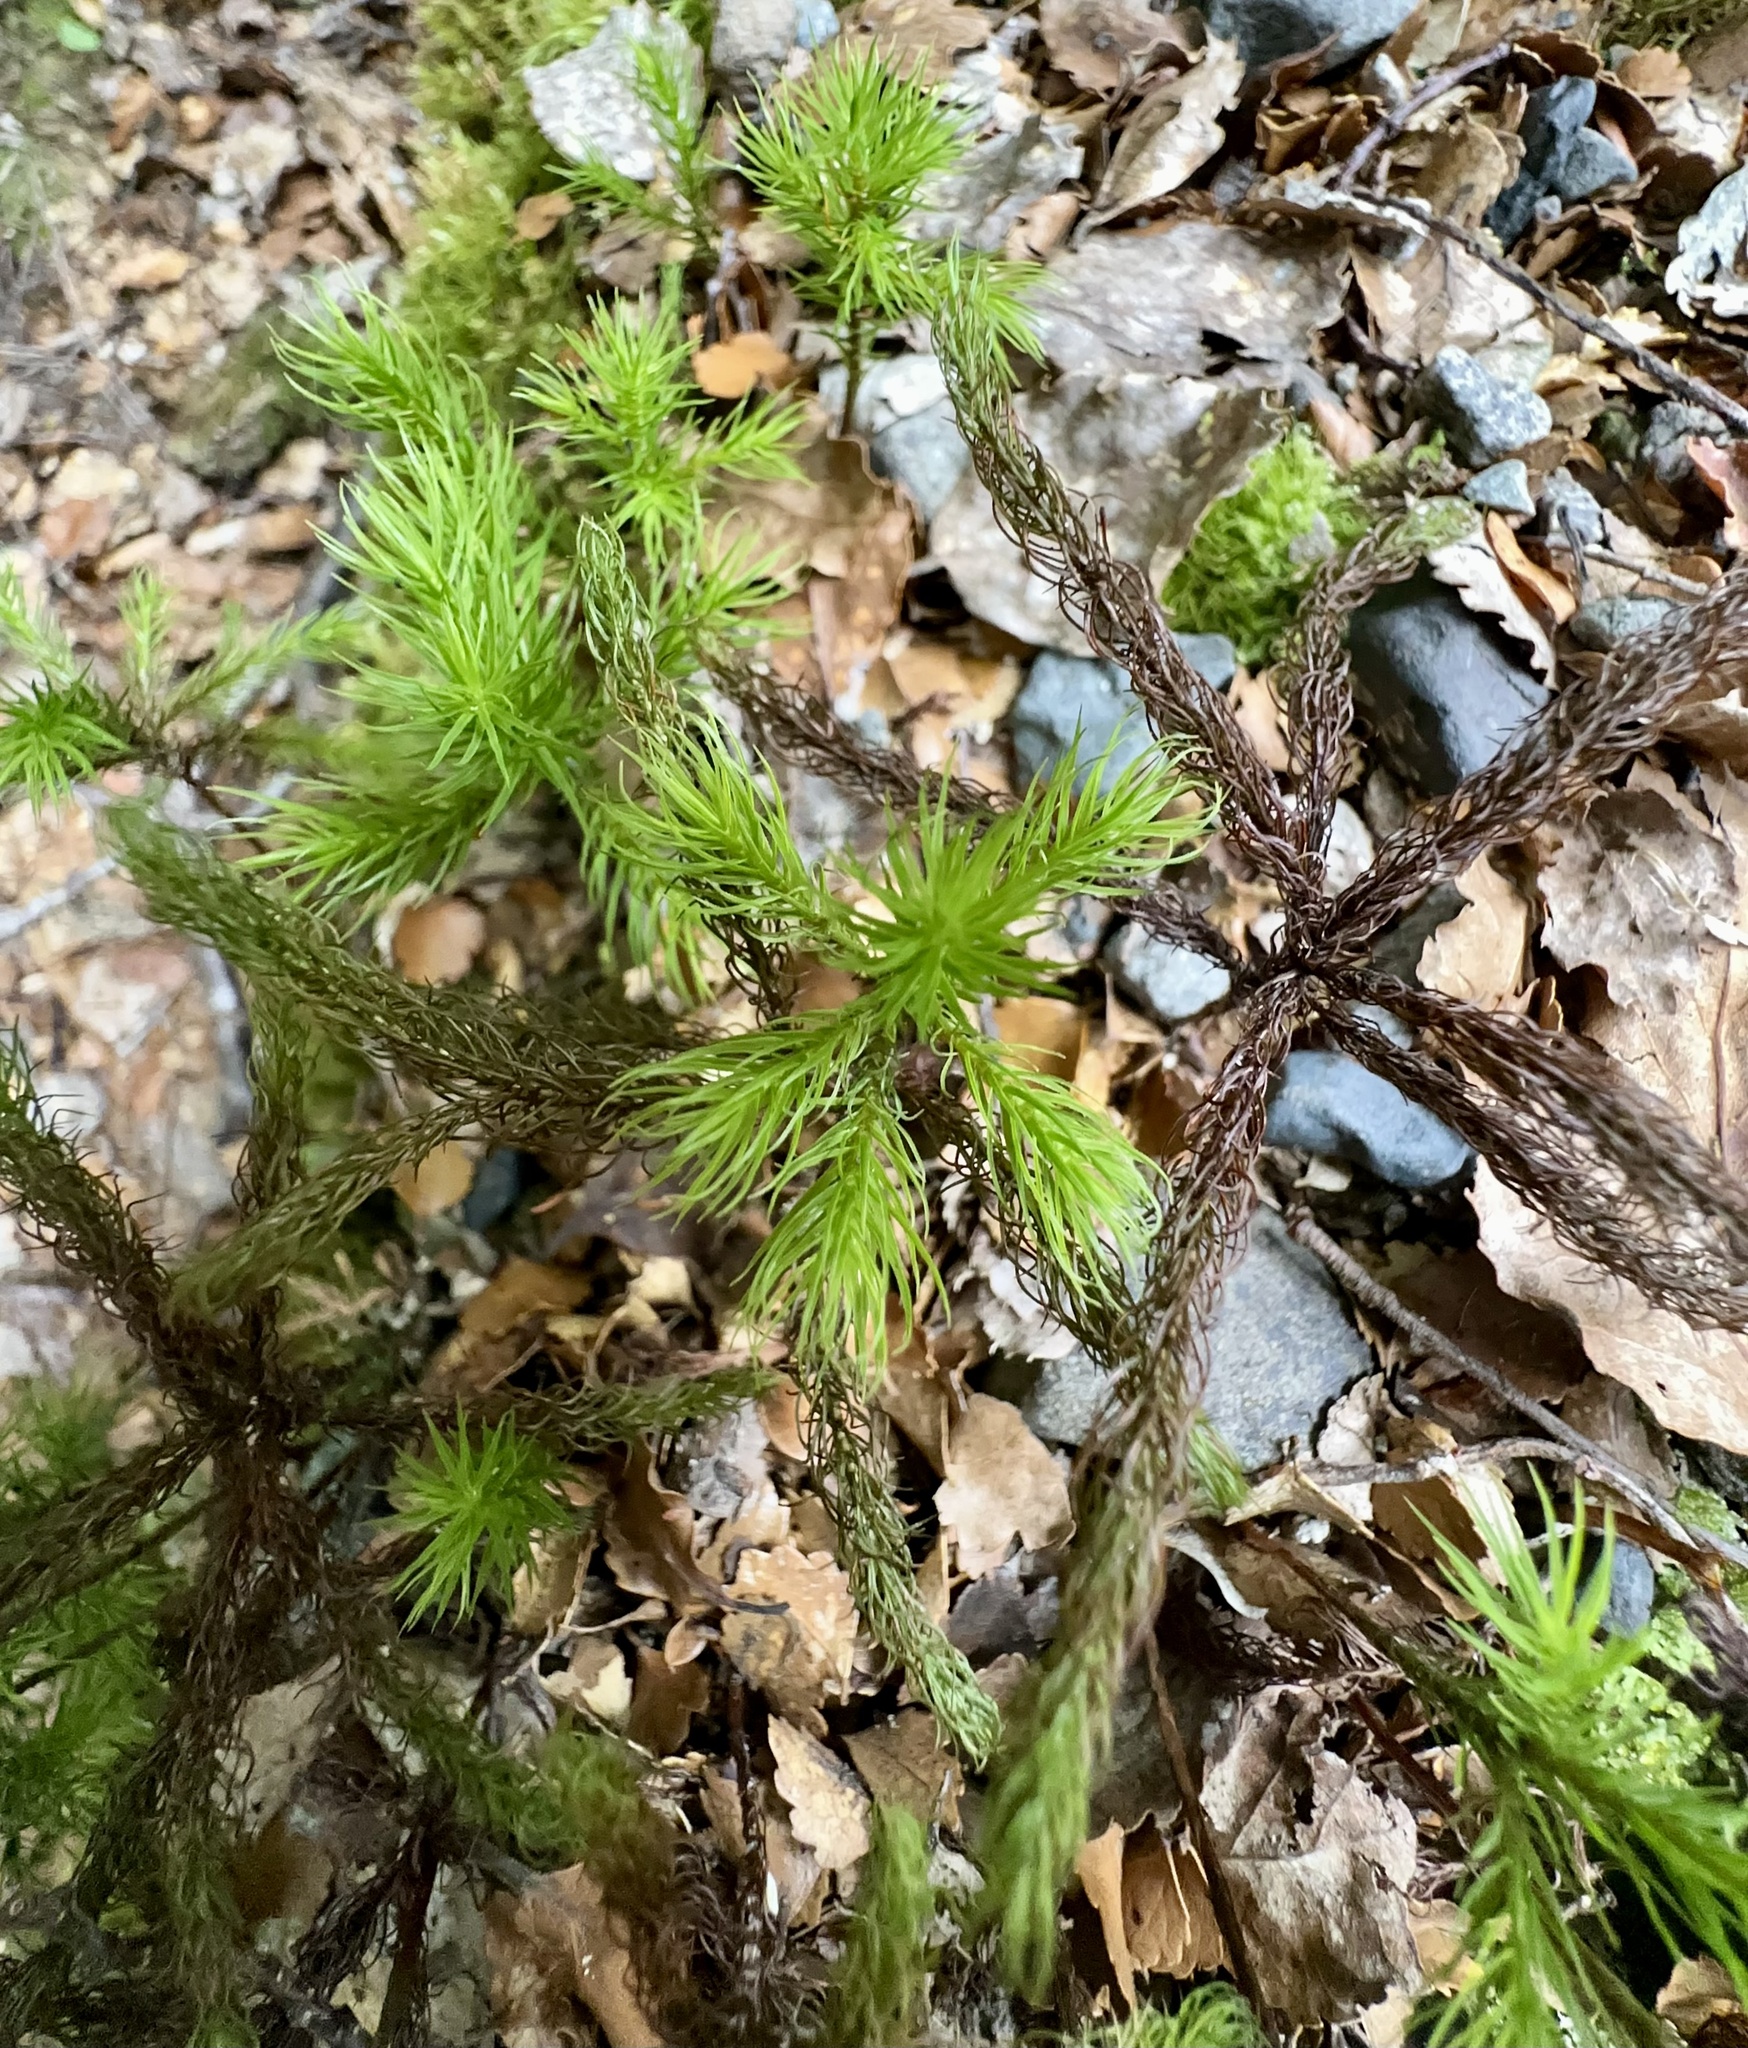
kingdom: Plantae
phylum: Bryophyta
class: Polytrichopsida
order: Polytrichales
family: Polytrichaceae
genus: Dendroligotrichum
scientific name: Dendroligotrichum tongariroense
